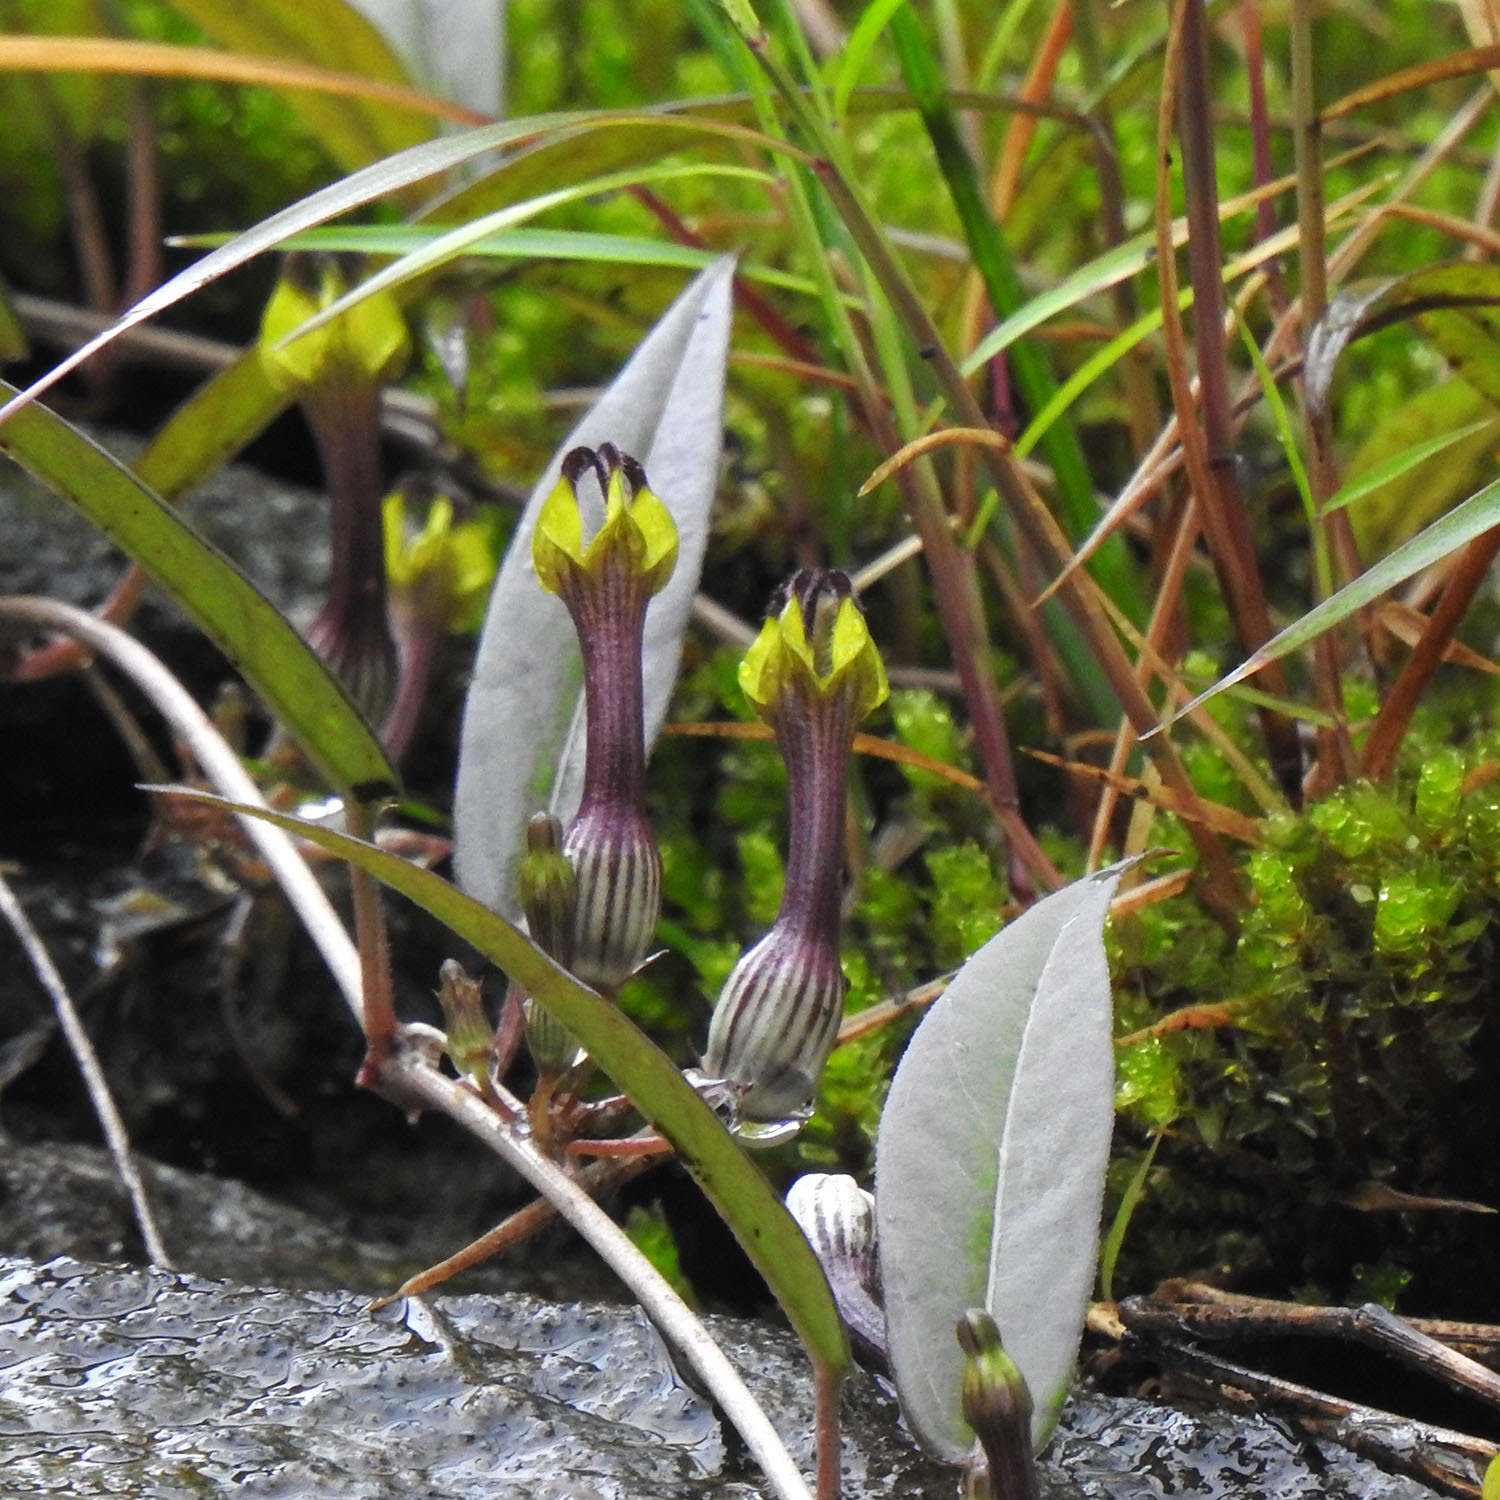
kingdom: Plantae
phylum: Tracheophyta
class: Magnoliopsida
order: Gentianales
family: Apocynaceae
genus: Ceropegia
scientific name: Ceropegia candelabrum
